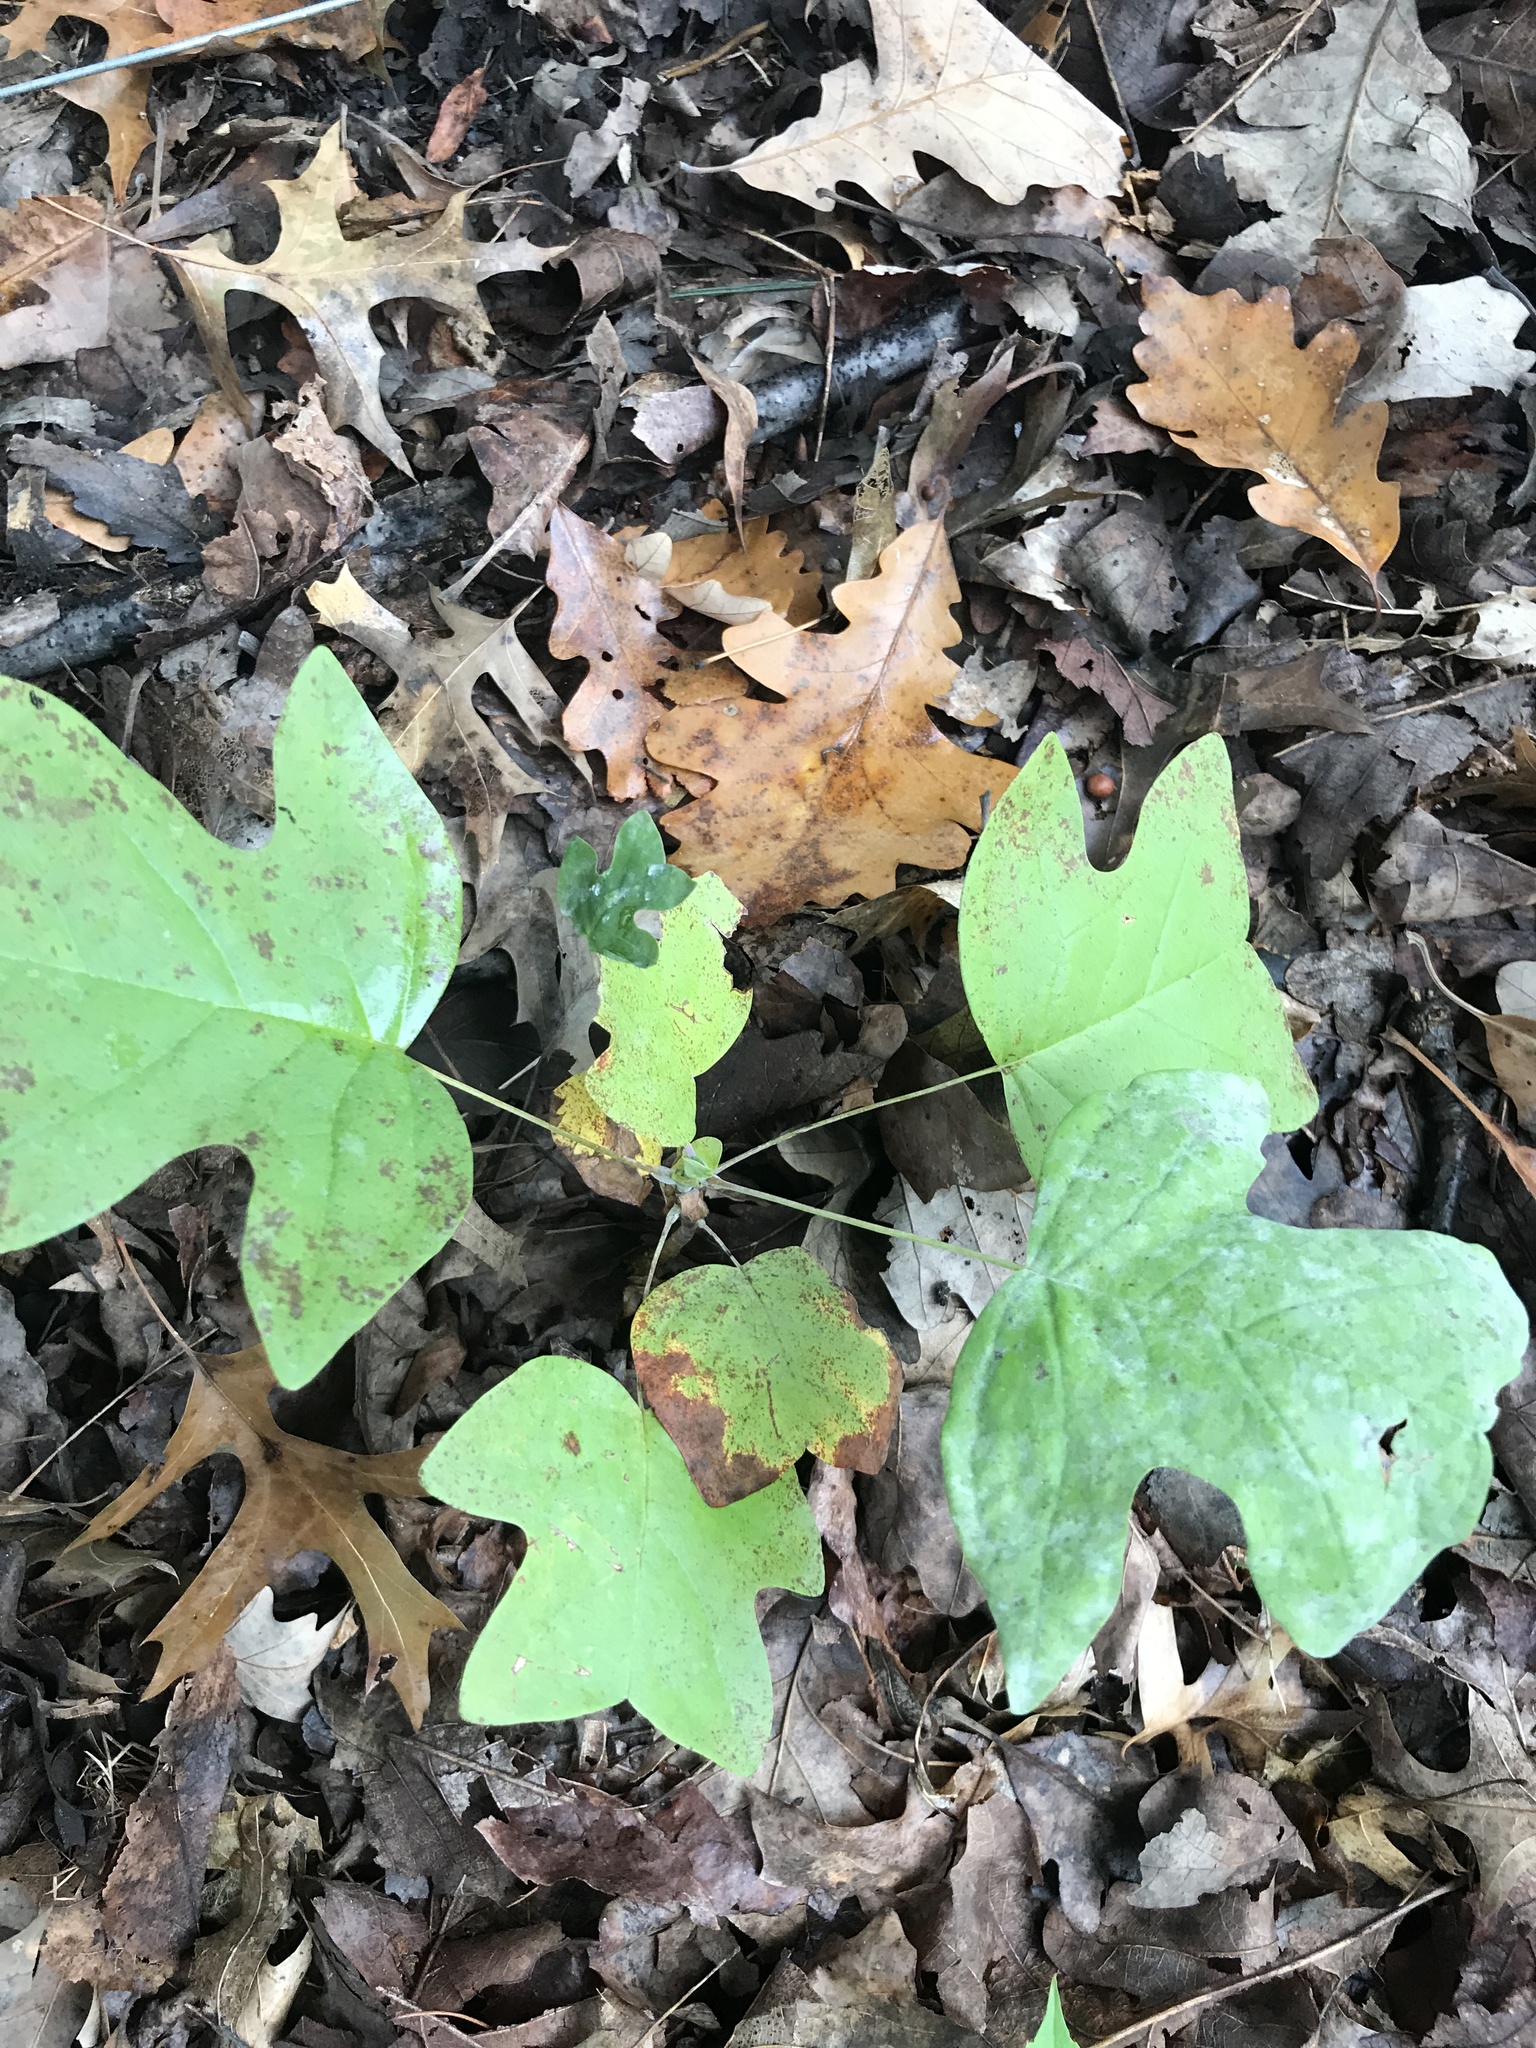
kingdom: Plantae
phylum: Tracheophyta
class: Magnoliopsida
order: Magnoliales
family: Magnoliaceae
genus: Liriodendron
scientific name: Liriodendron tulipifera
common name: Tulip tree
